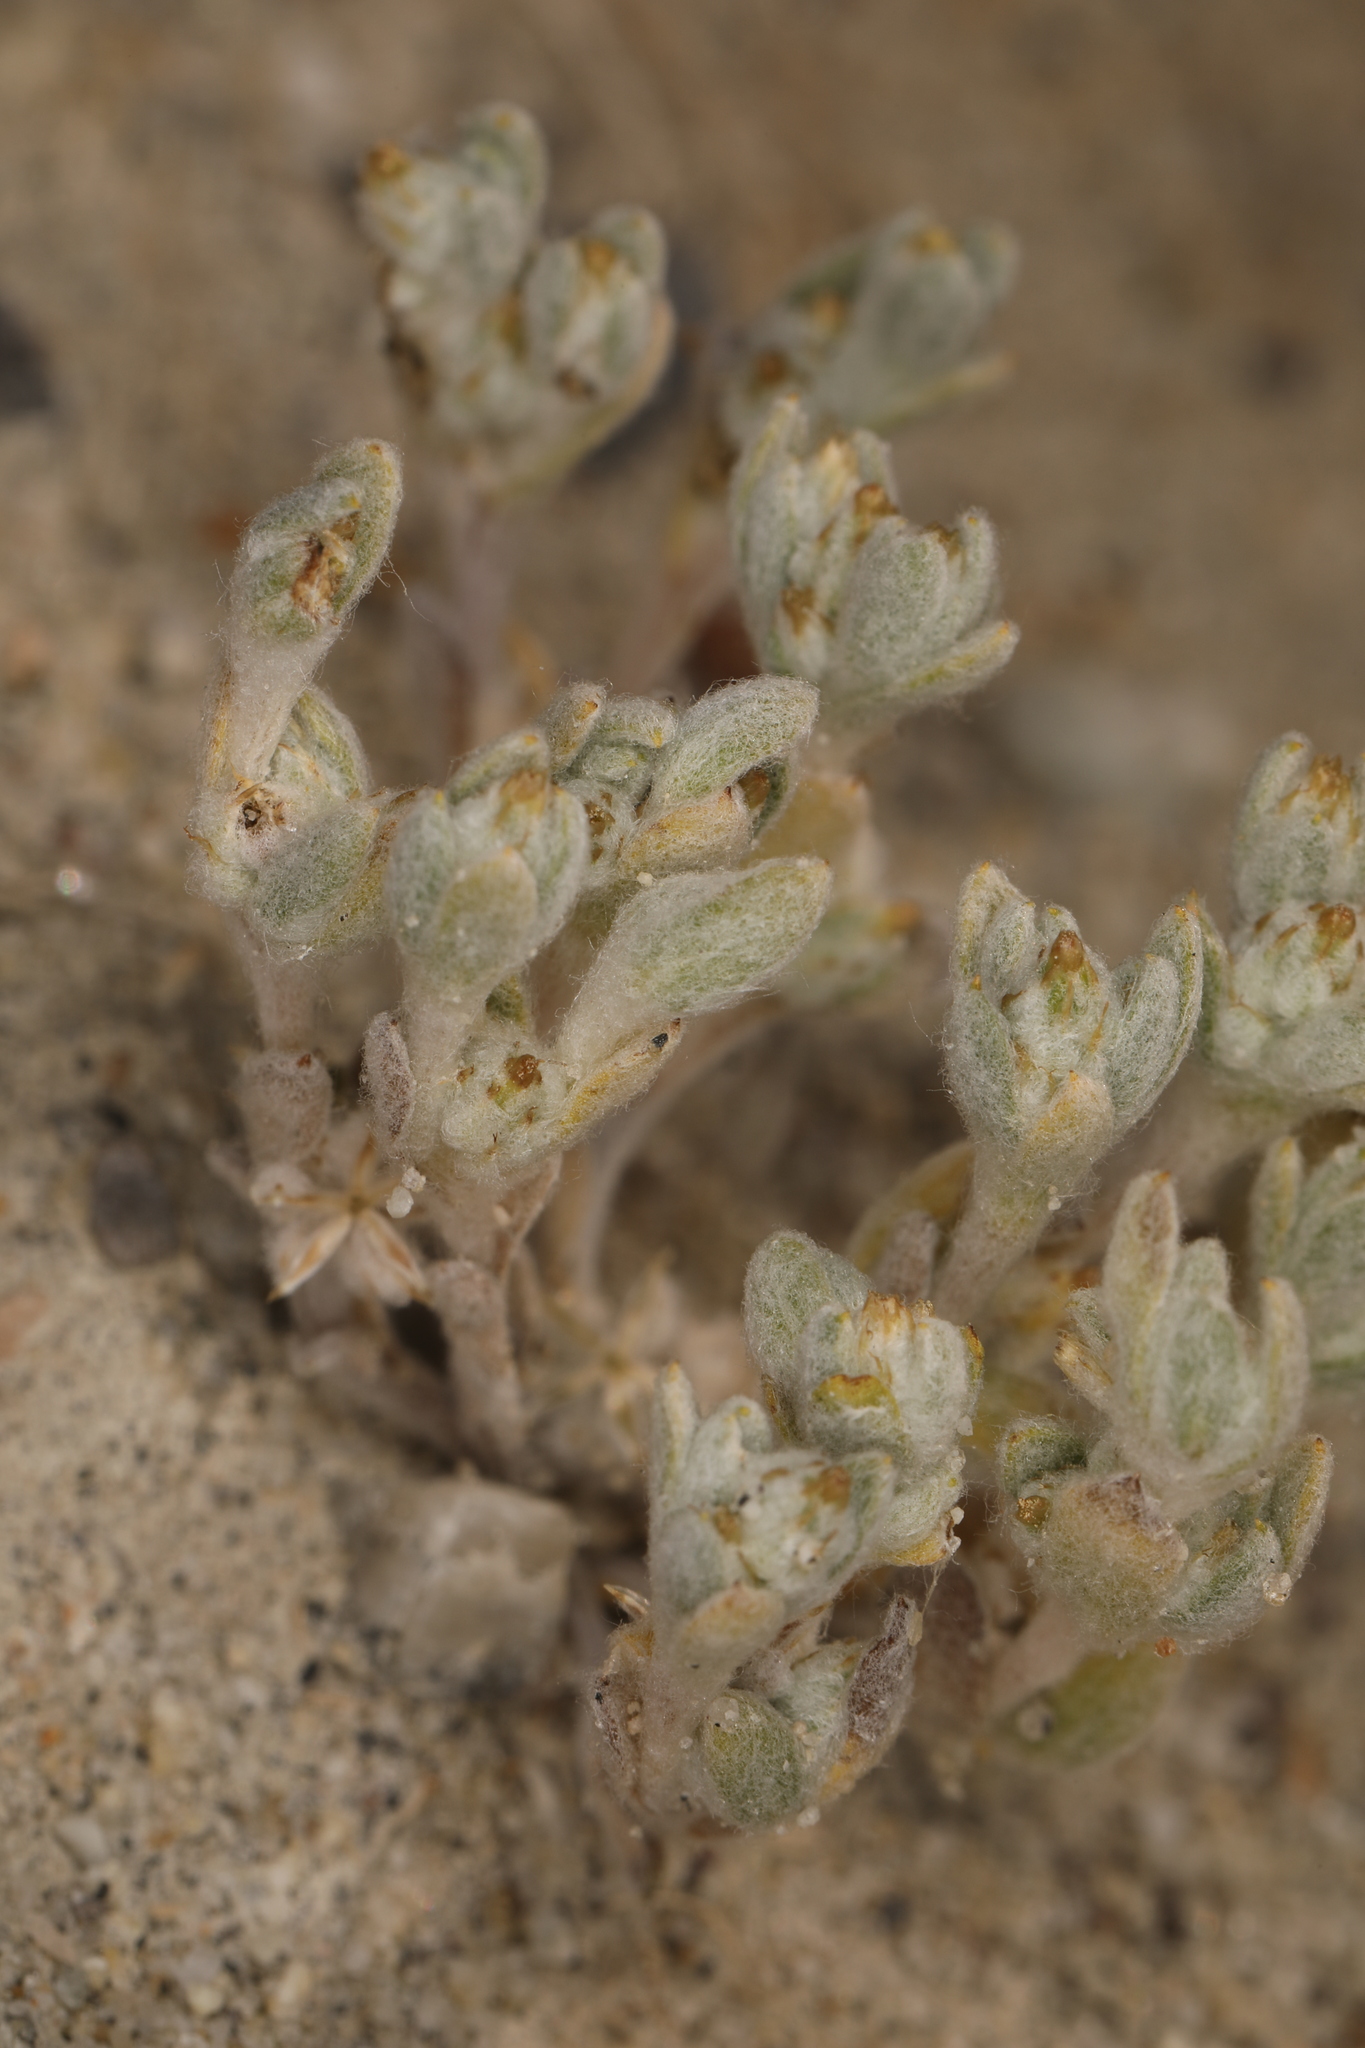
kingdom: Plantae
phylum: Tracheophyta
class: Magnoliopsida
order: Asterales
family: Asteraceae
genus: Logfia
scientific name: Logfia depressa
